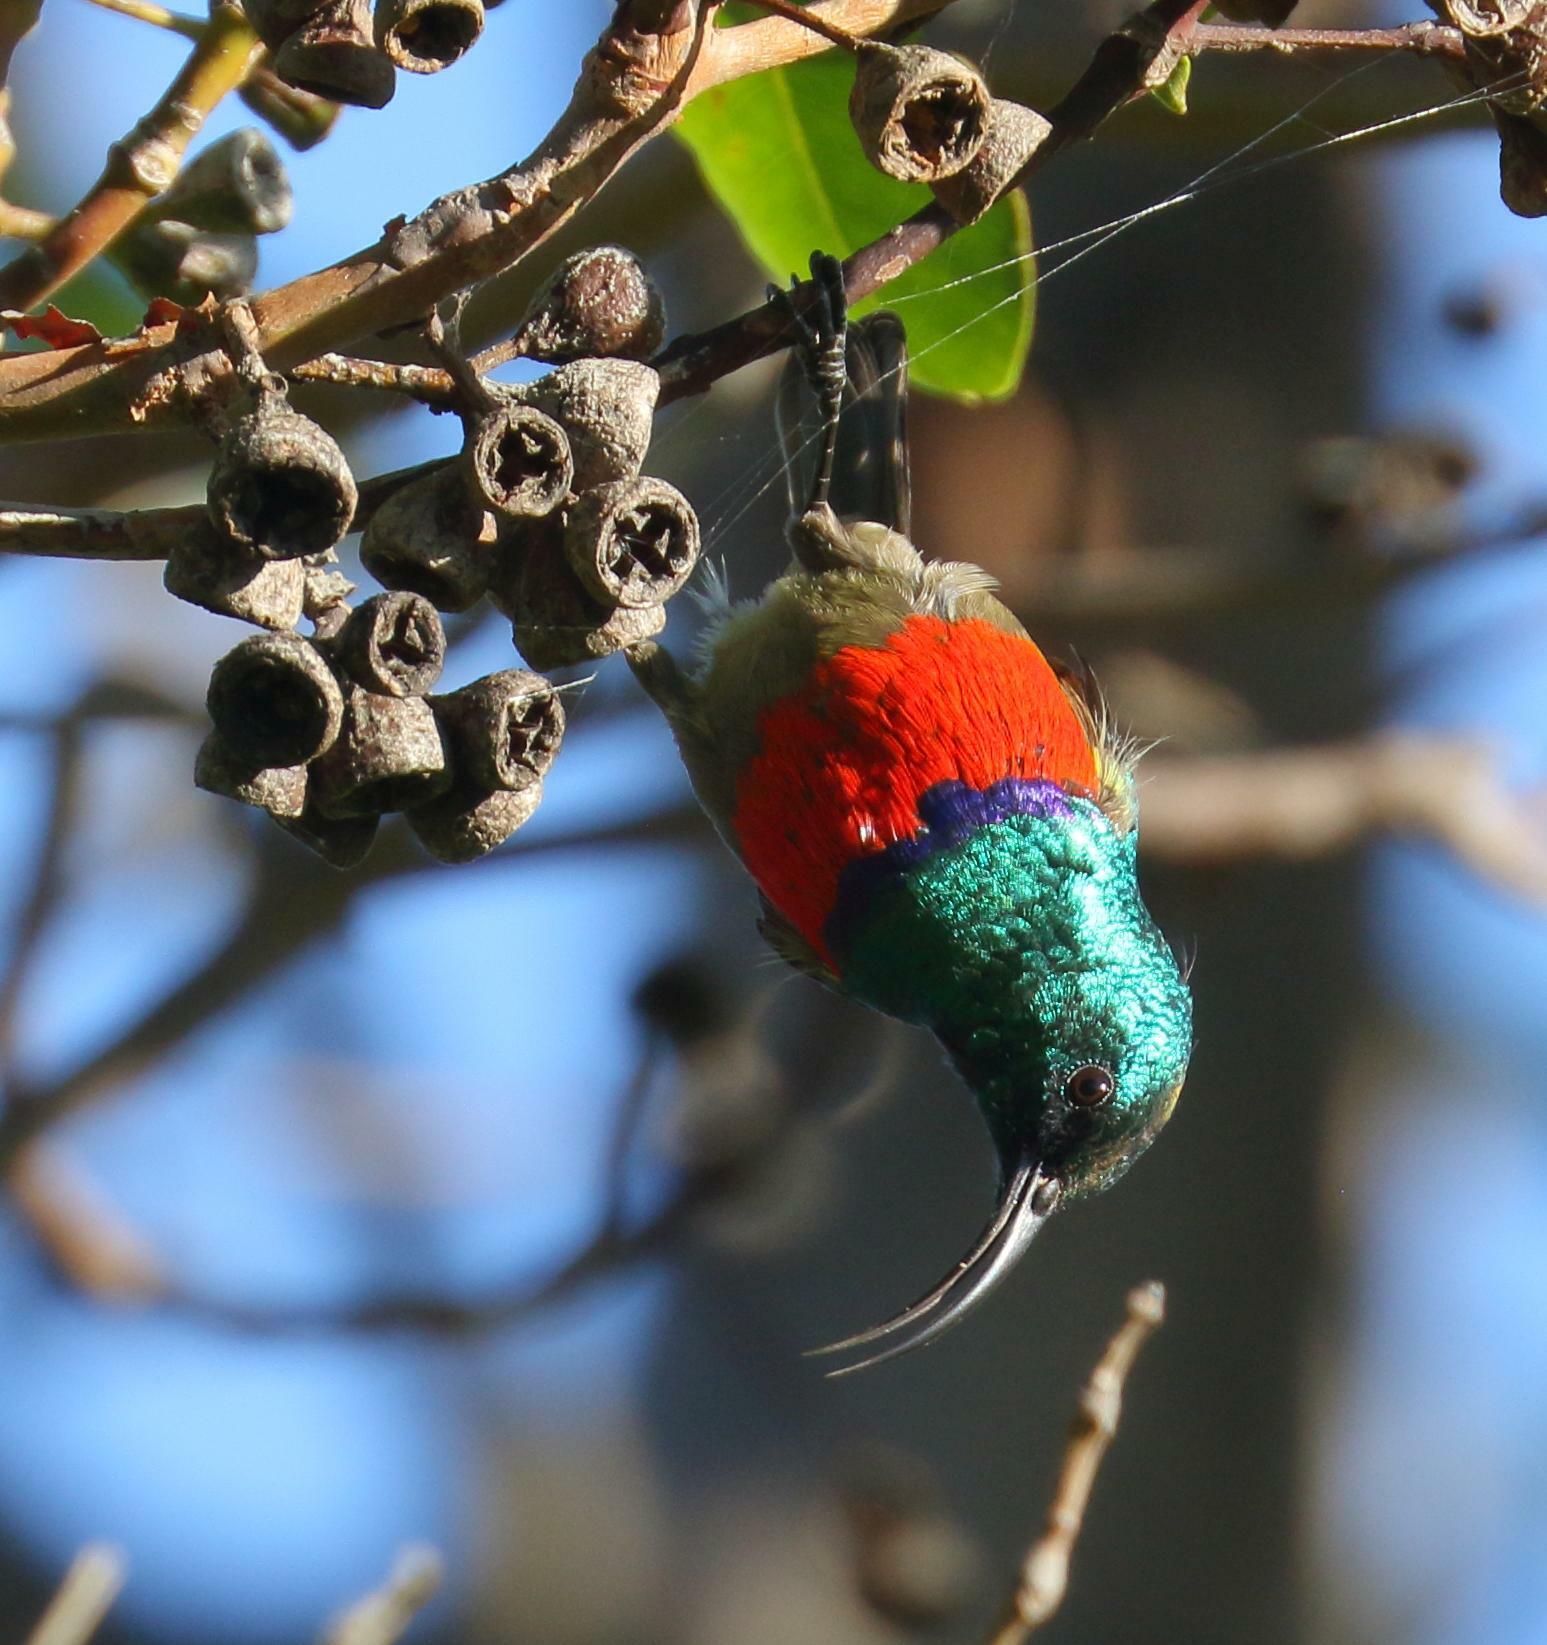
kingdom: Animalia
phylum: Chordata
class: Aves
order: Passeriformes
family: Nectariniidae
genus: Cinnyris
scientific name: Cinnyris afer
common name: Greater double-collared sunbird
